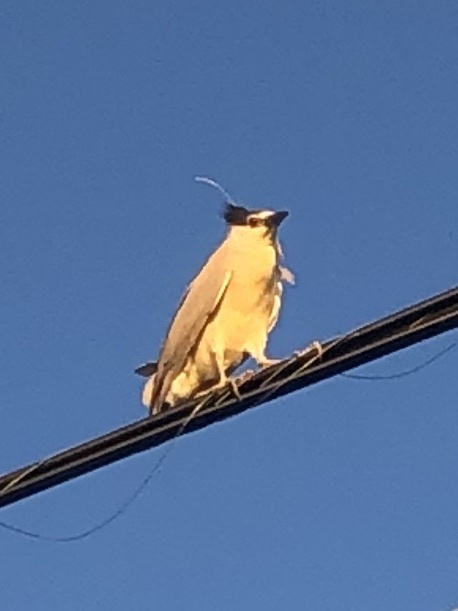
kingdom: Animalia
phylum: Chordata
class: Aves
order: Pelecaniformes
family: Ardeidae
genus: Nycticorax
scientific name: Nycticorax nycticorax
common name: Black-crowned night heron
